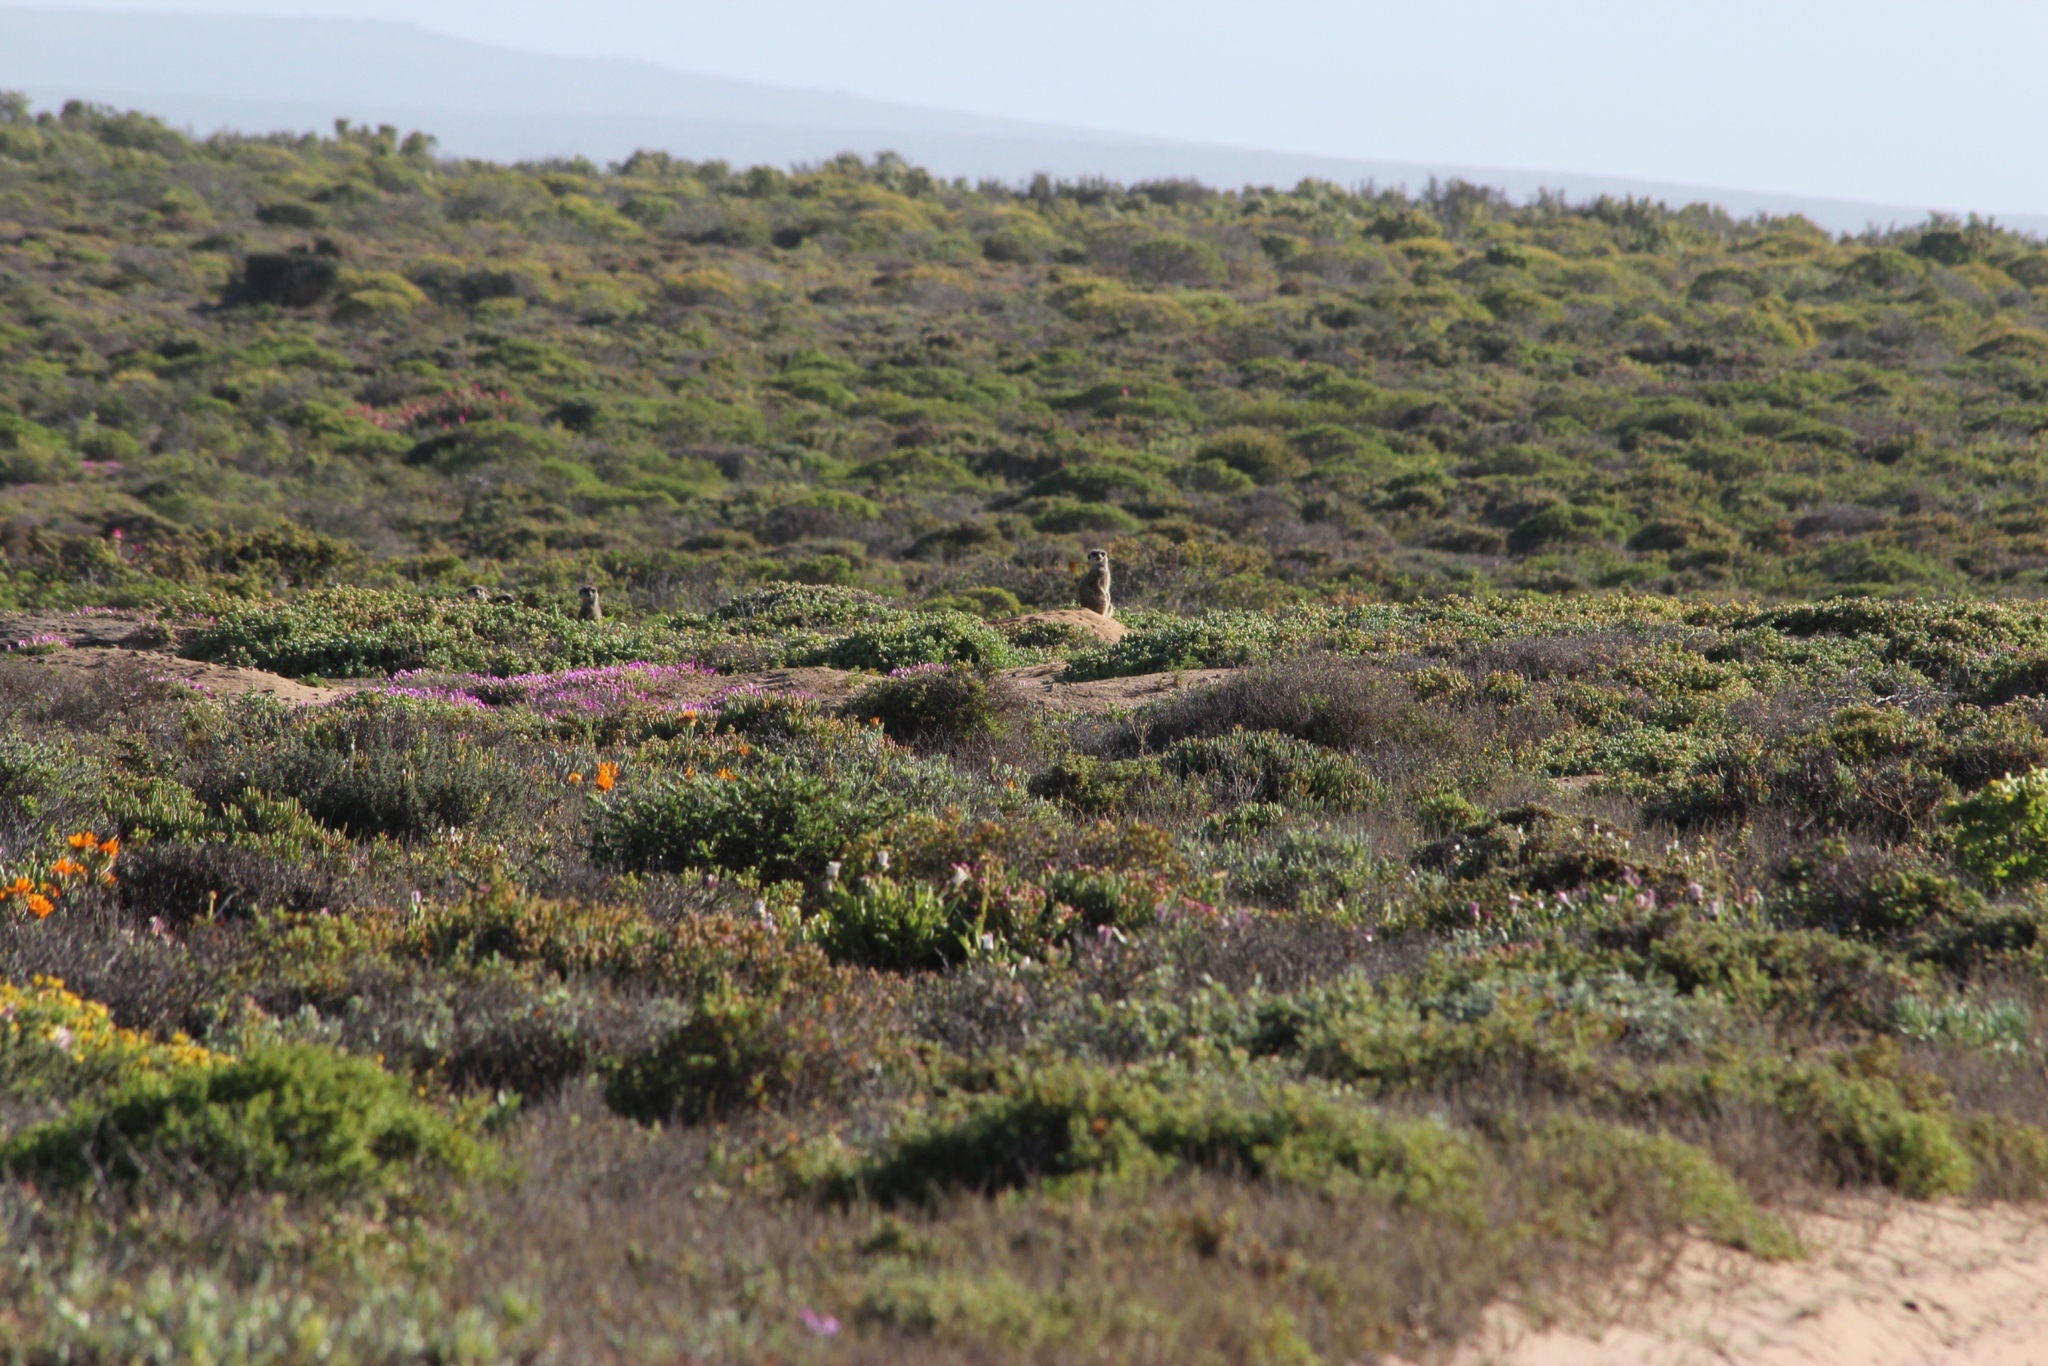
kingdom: Animalia
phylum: Chordata
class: Mammalia
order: Carnivora
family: Herpestidae
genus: Suricata
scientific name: Suricata suricatta
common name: Meerkat
